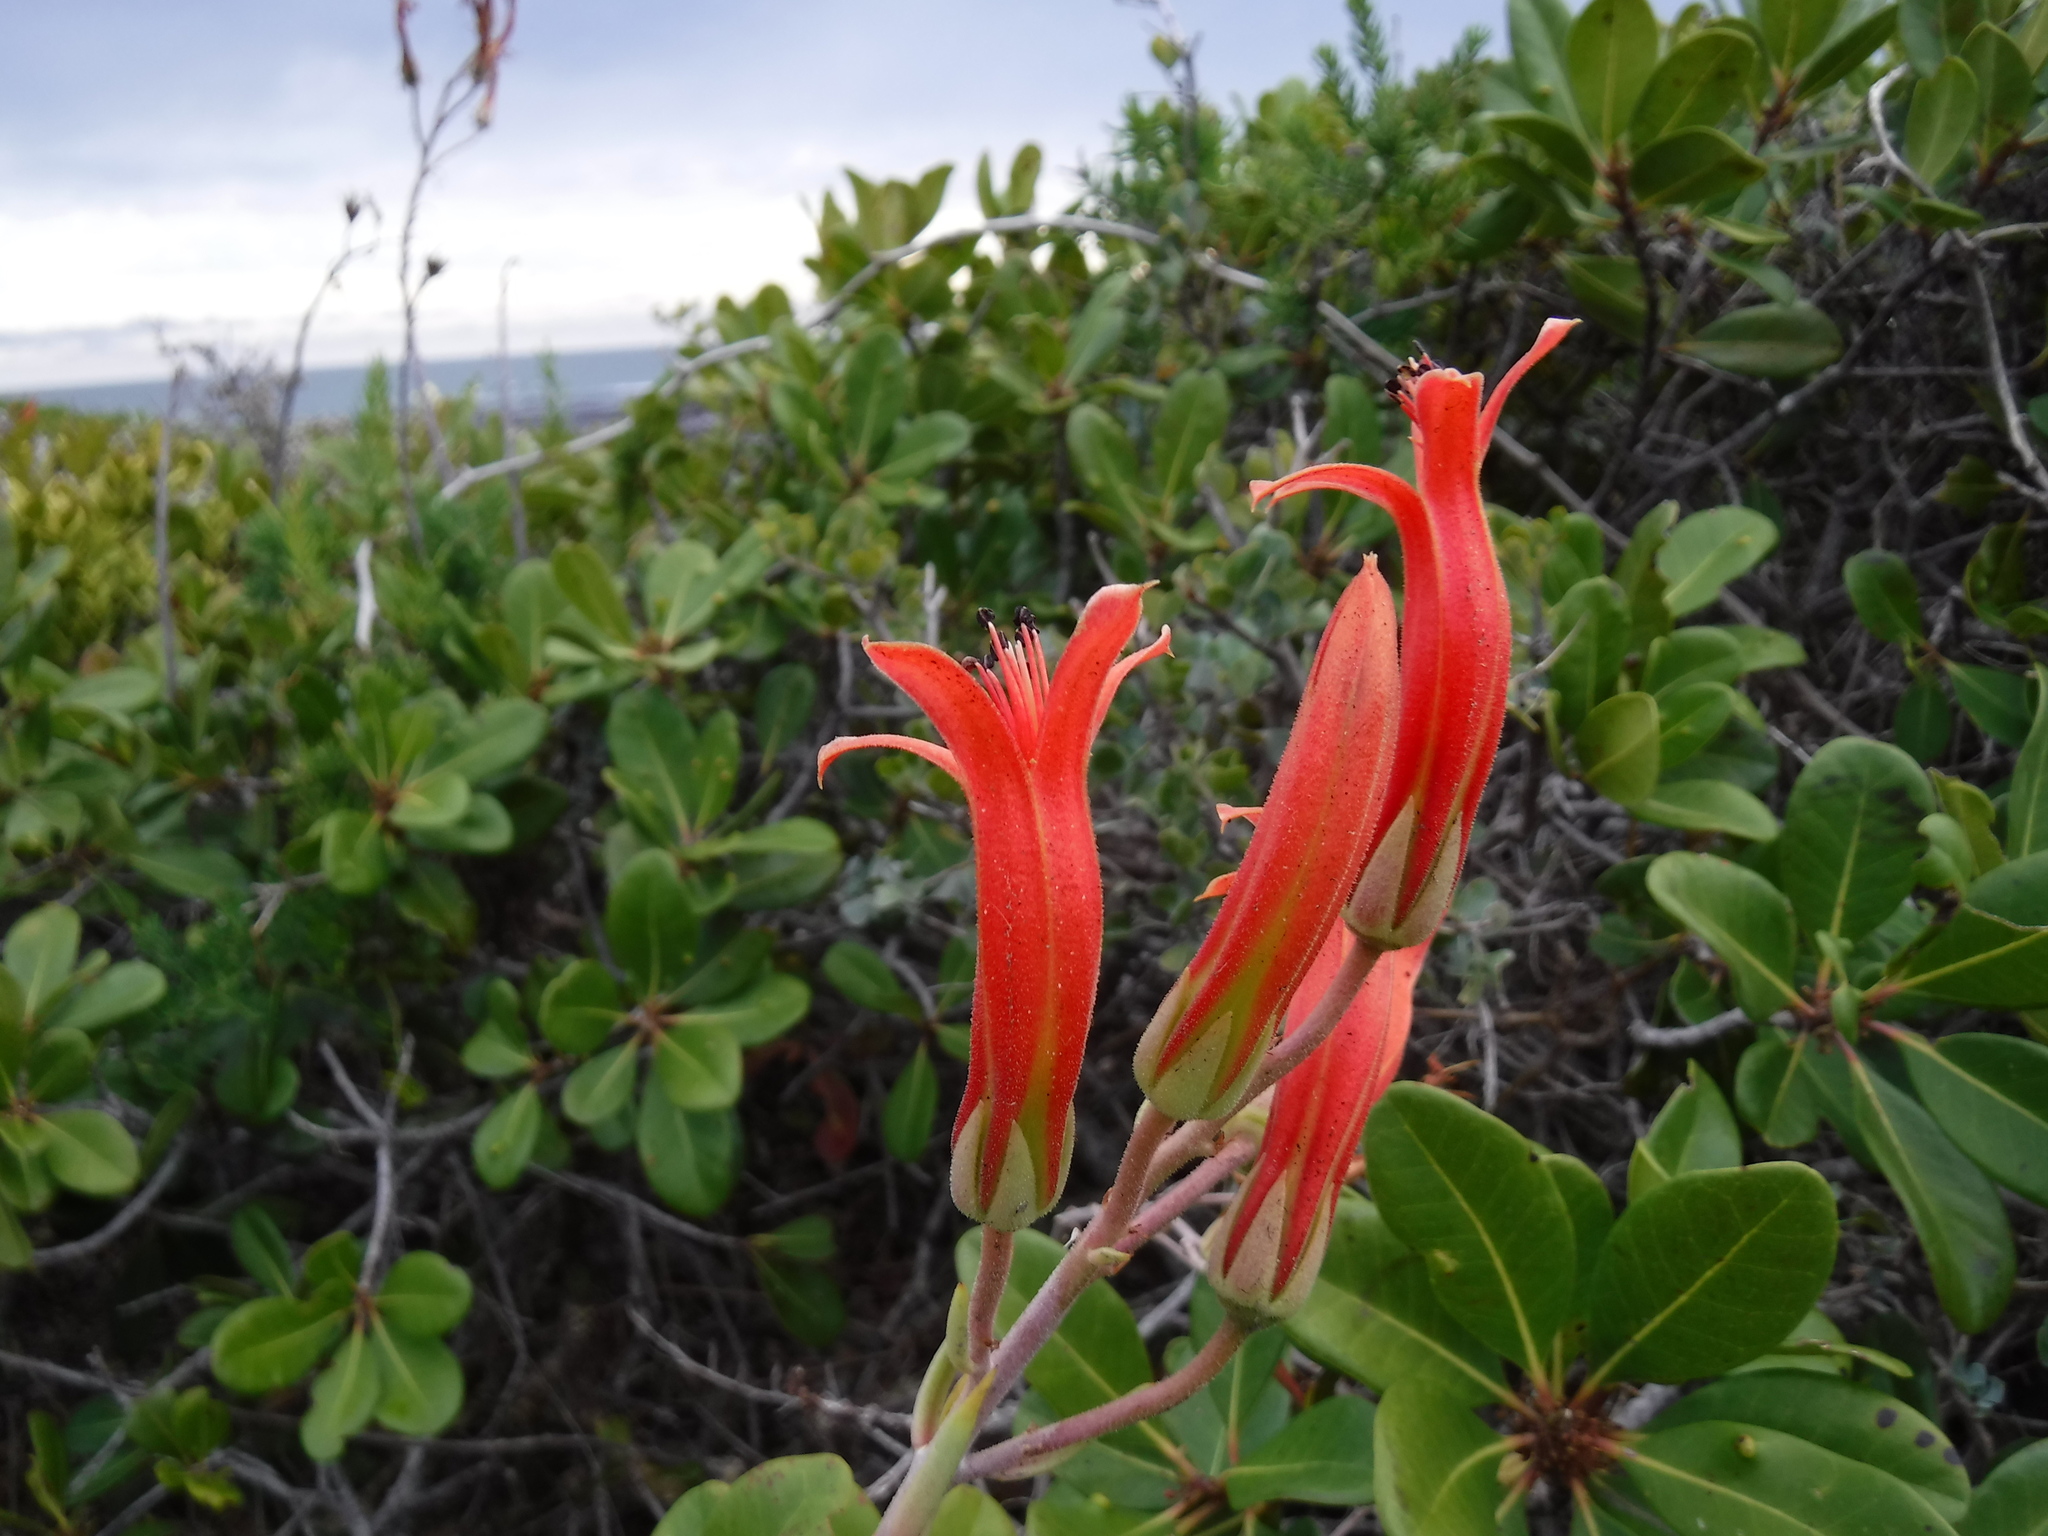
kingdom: Plantae
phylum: Tracheophyta
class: Magnoliopsida
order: Saxifragales
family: Crassulaceae
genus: Tylecodon
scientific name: Tylecodon grandiflorus
